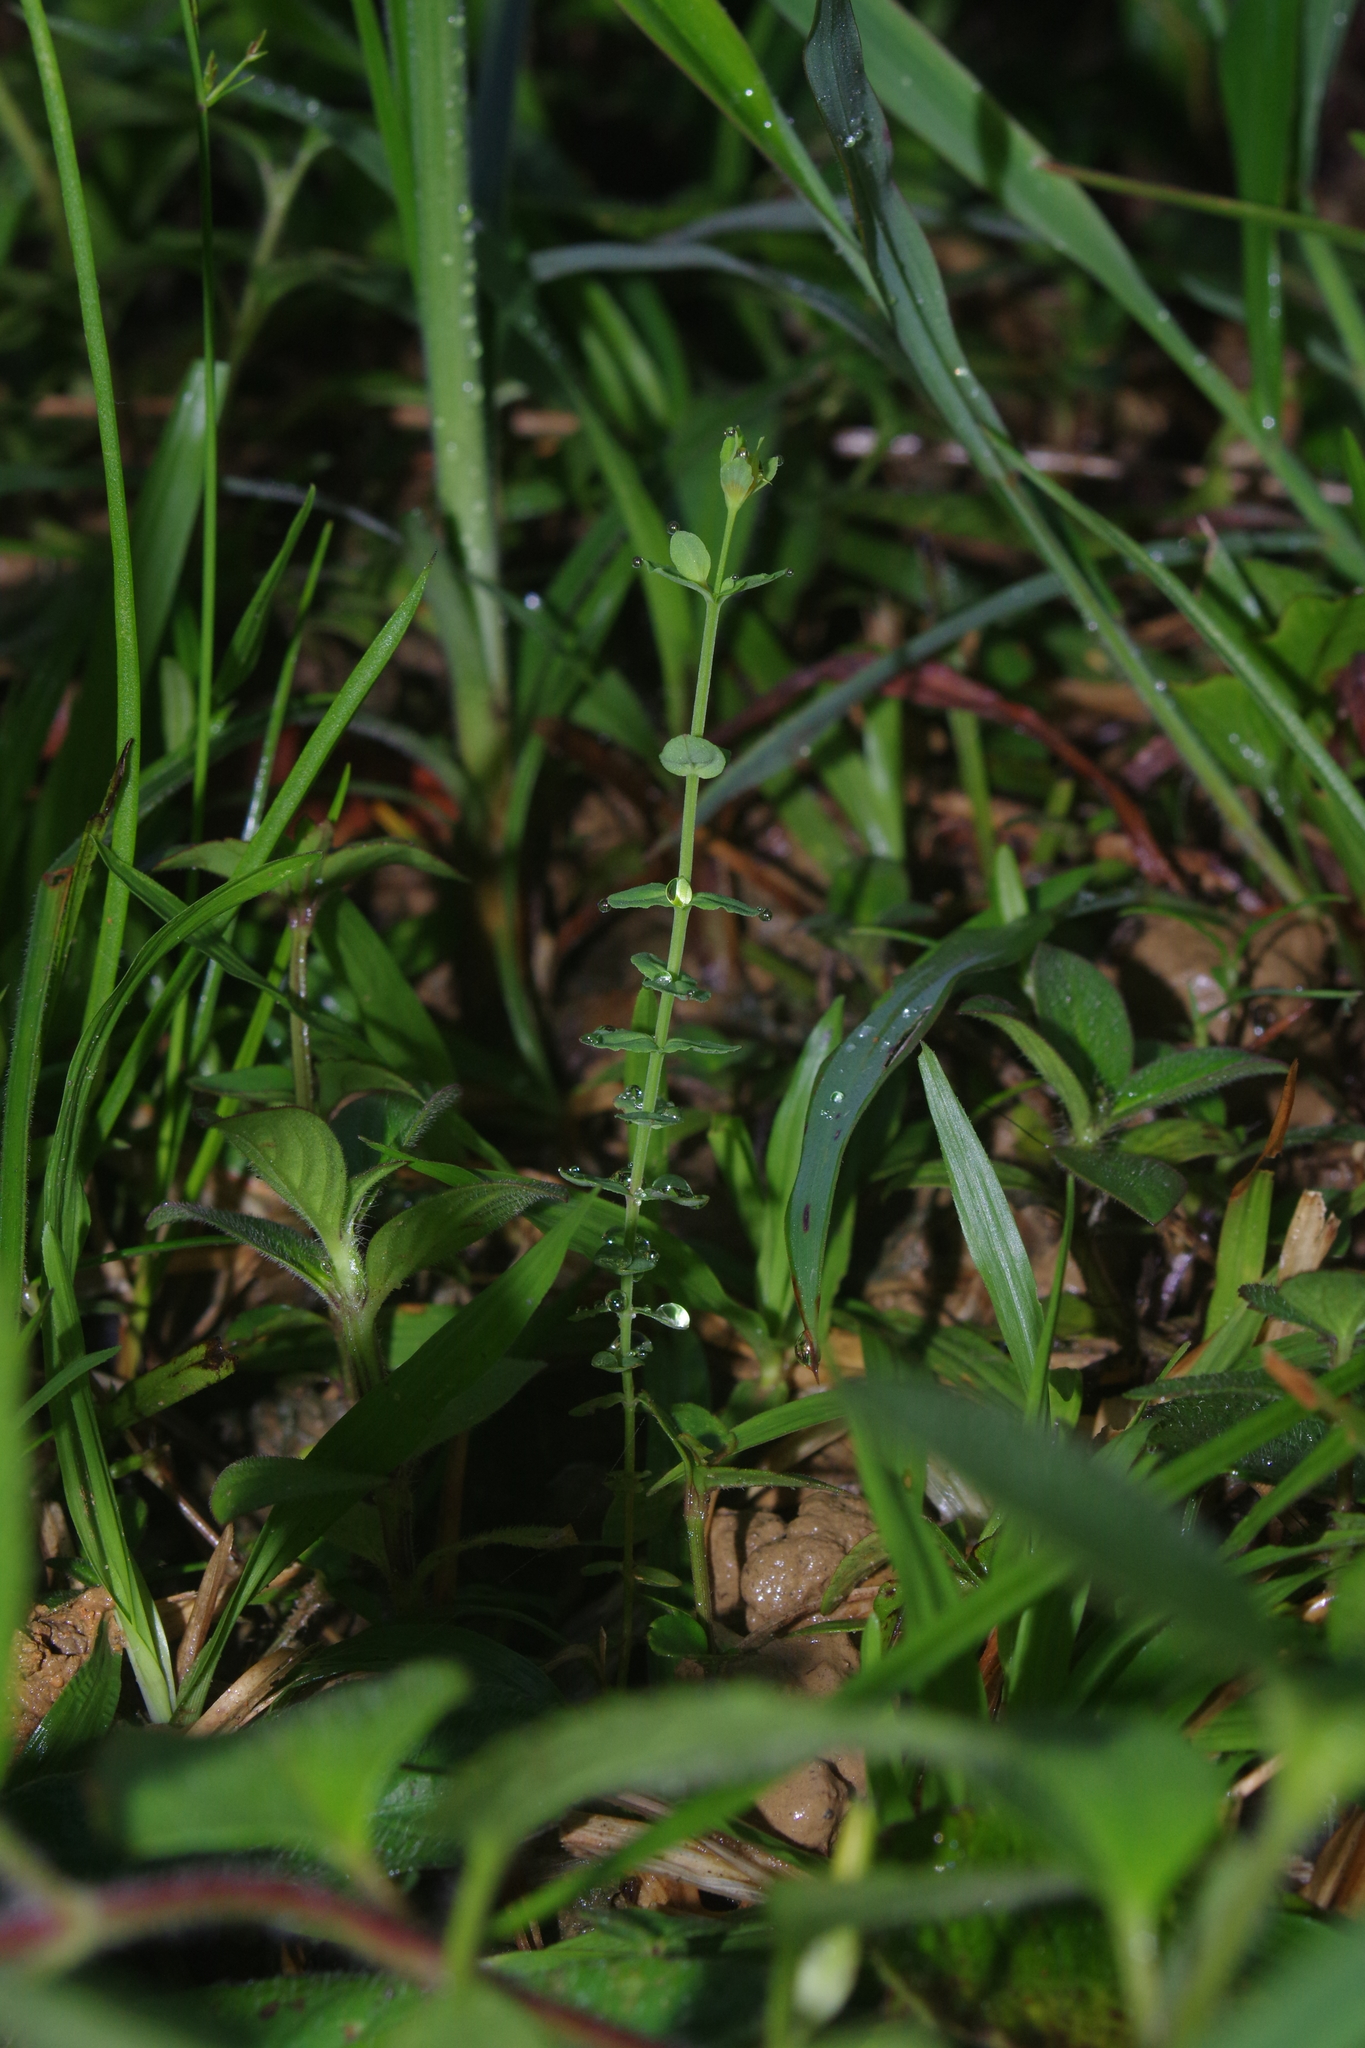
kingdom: Plantae
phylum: Tracheophyta
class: Magnoliopsida
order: Malpighiales
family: Hypericaceae
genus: Hypericum
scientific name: Hypericum japonicum
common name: Matted st. john's-wort
